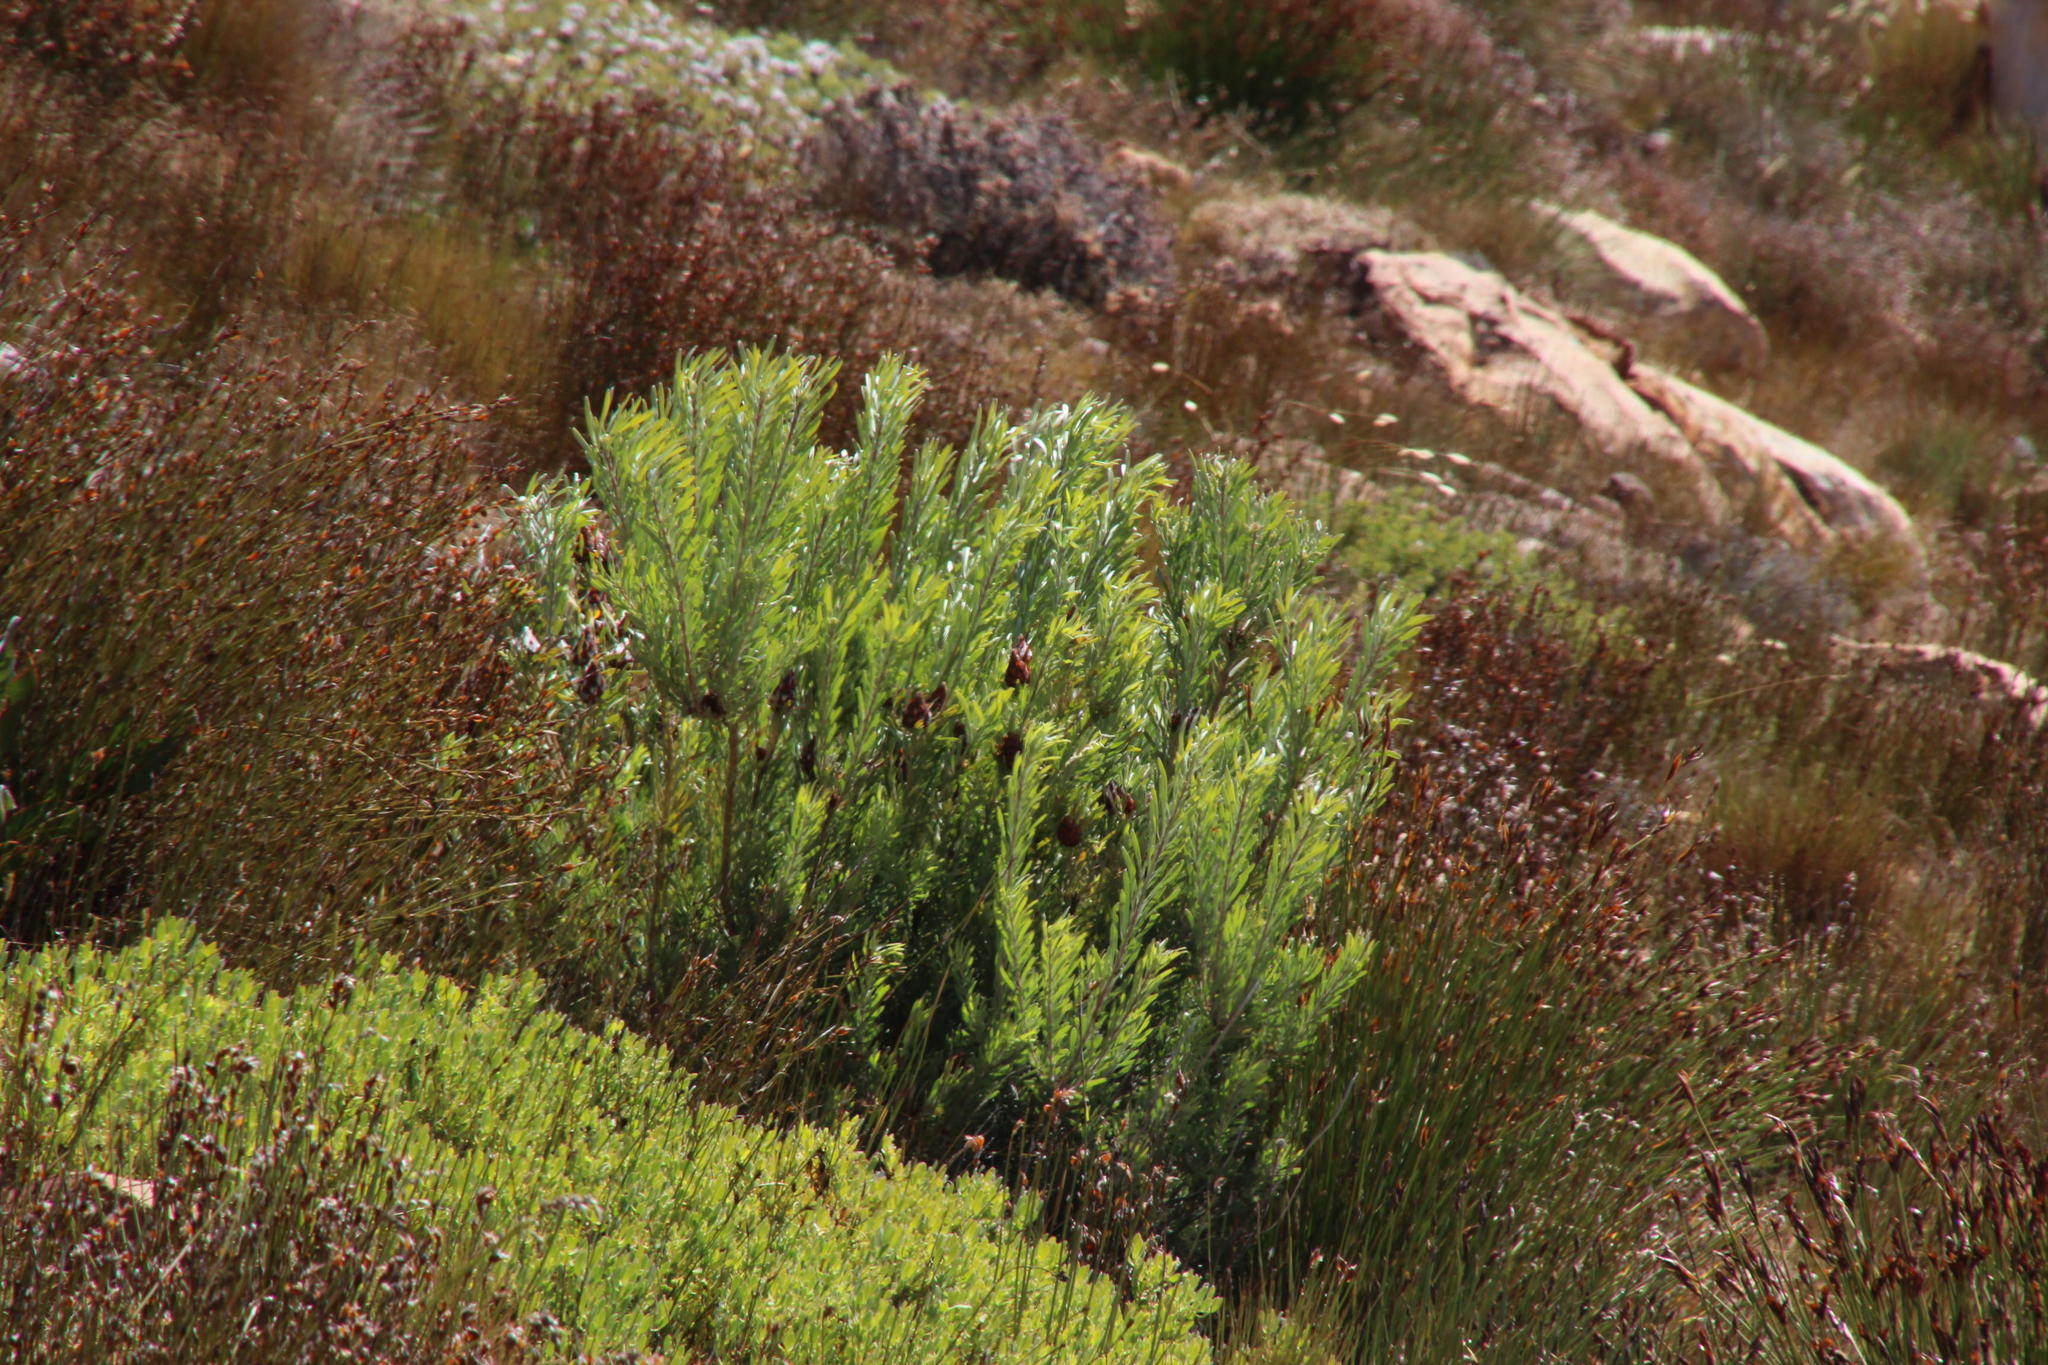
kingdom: Plantae
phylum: Tracheophyta
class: Magnoliopsida
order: Proteales
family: Proteaceae
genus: Leucadendron
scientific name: Leucadendron rubrum
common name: Spinning top
